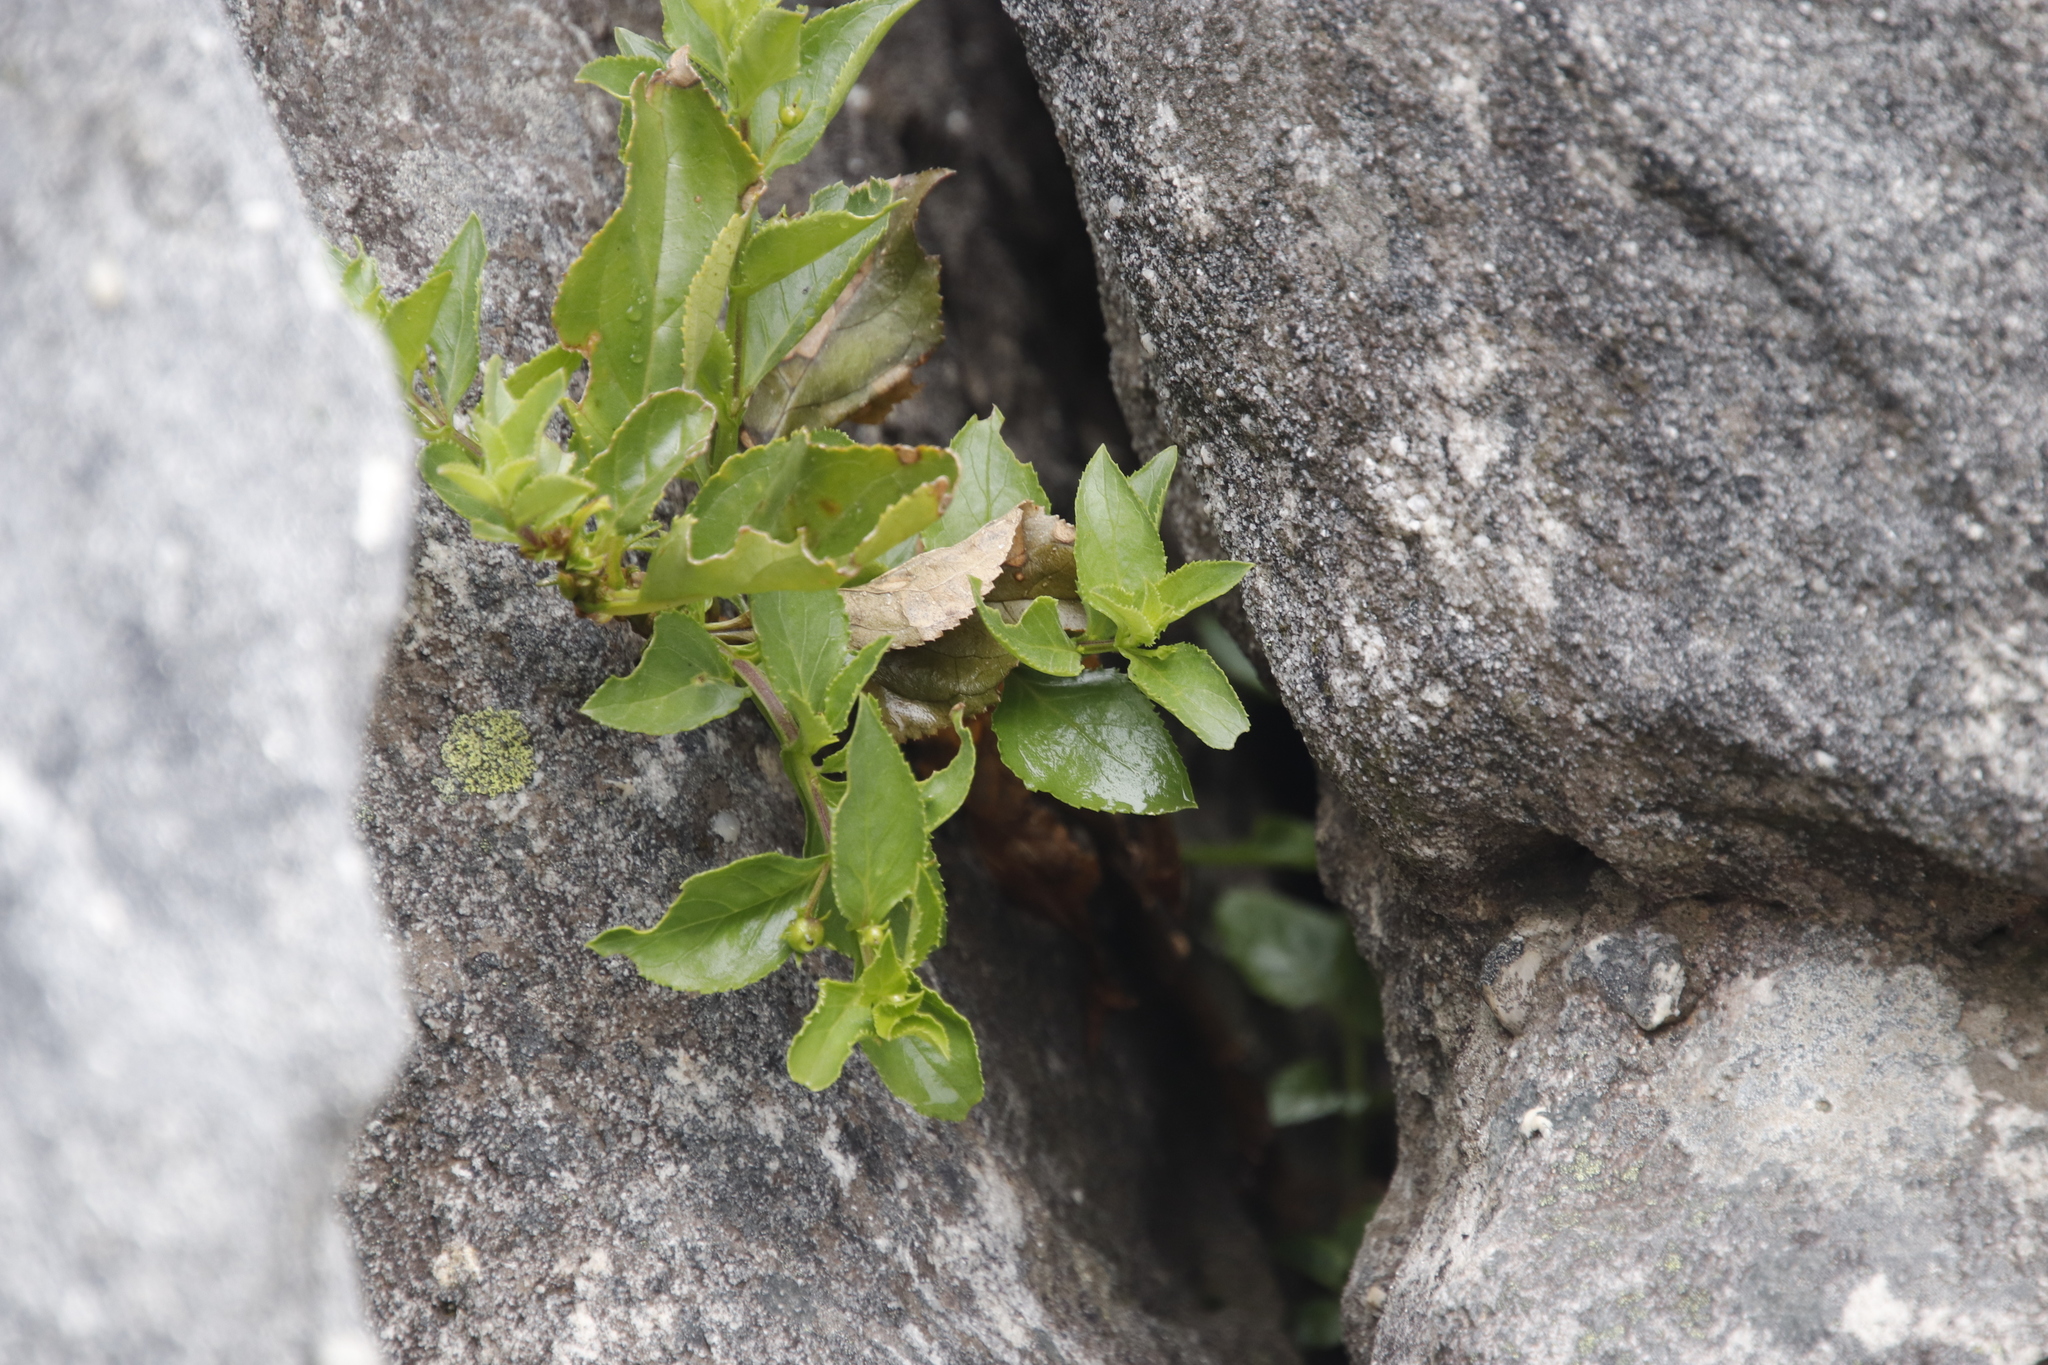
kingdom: Plantae
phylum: Tracheophyta
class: Magnoliopsida
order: Lamiales
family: Scrophulariaceae
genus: Teedia
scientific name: Teedia lucida
